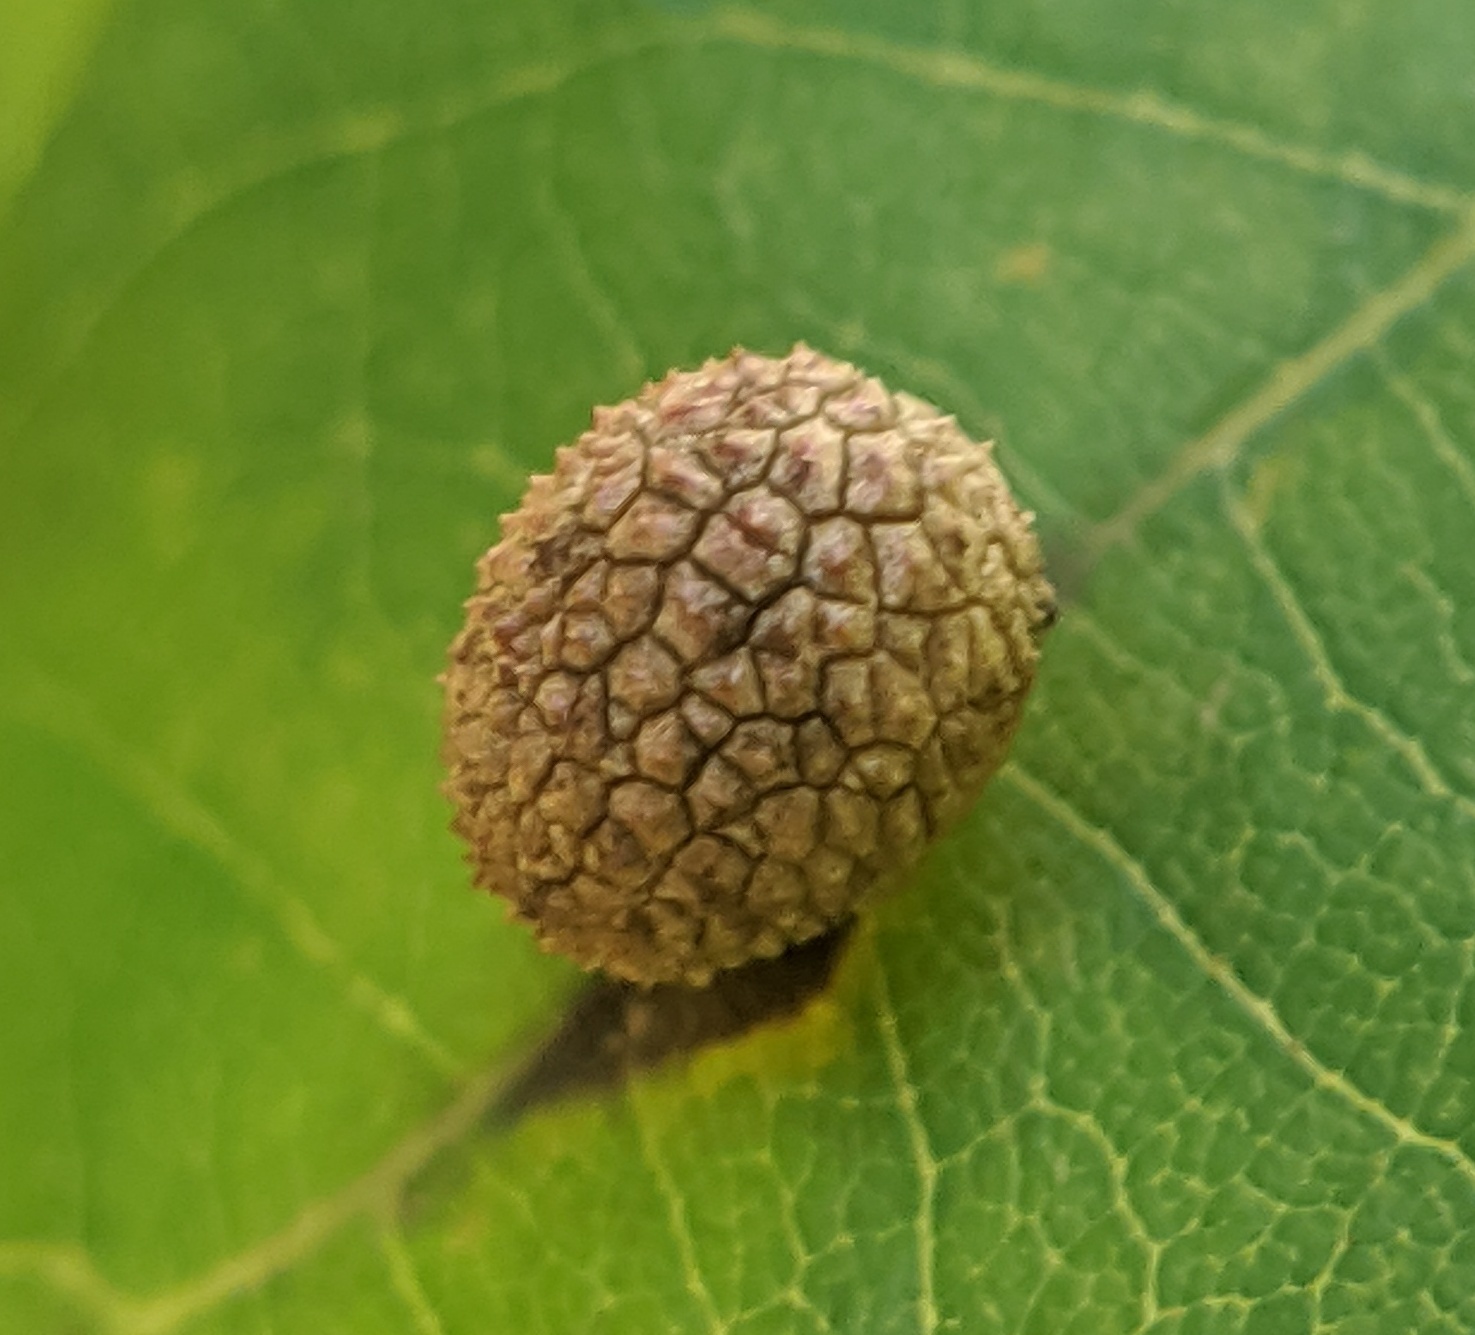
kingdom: Animalia
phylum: Arthropoda
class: Insecta
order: Hymenoptera
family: Cynipidae
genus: Acraspis
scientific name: Acraspis quercushirta
